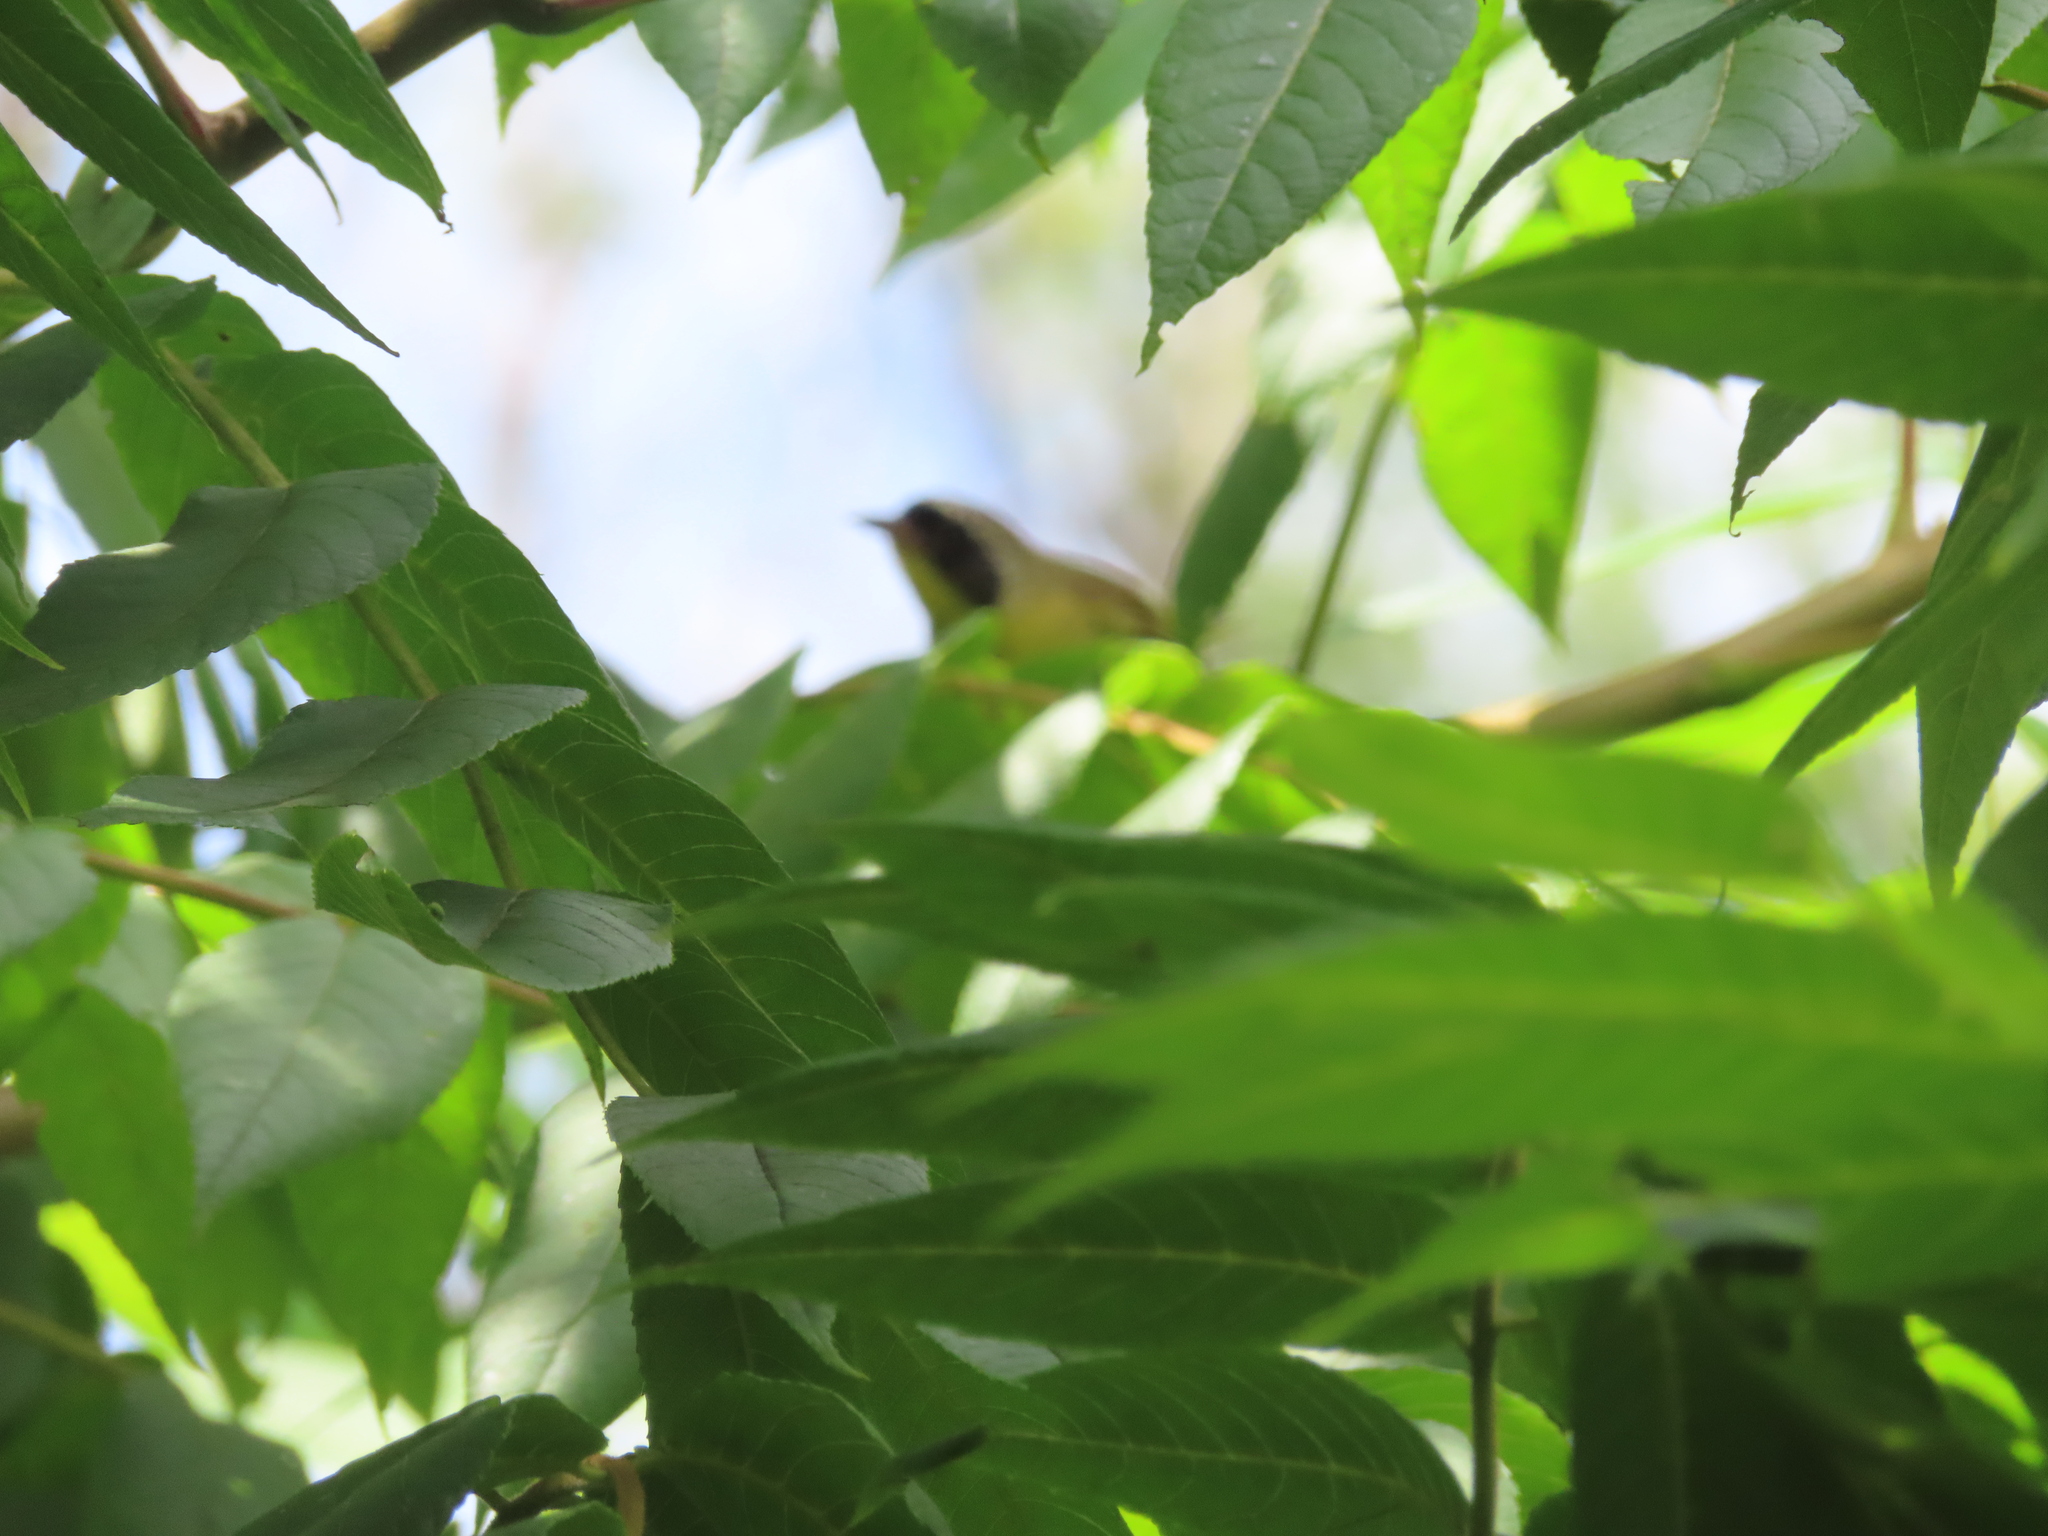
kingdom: Animalia
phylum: Chordata
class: Aves
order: Passeriformes
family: Parulidae
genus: Geothlypis
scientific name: Geothlypis trichas
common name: Common yellowthroat
